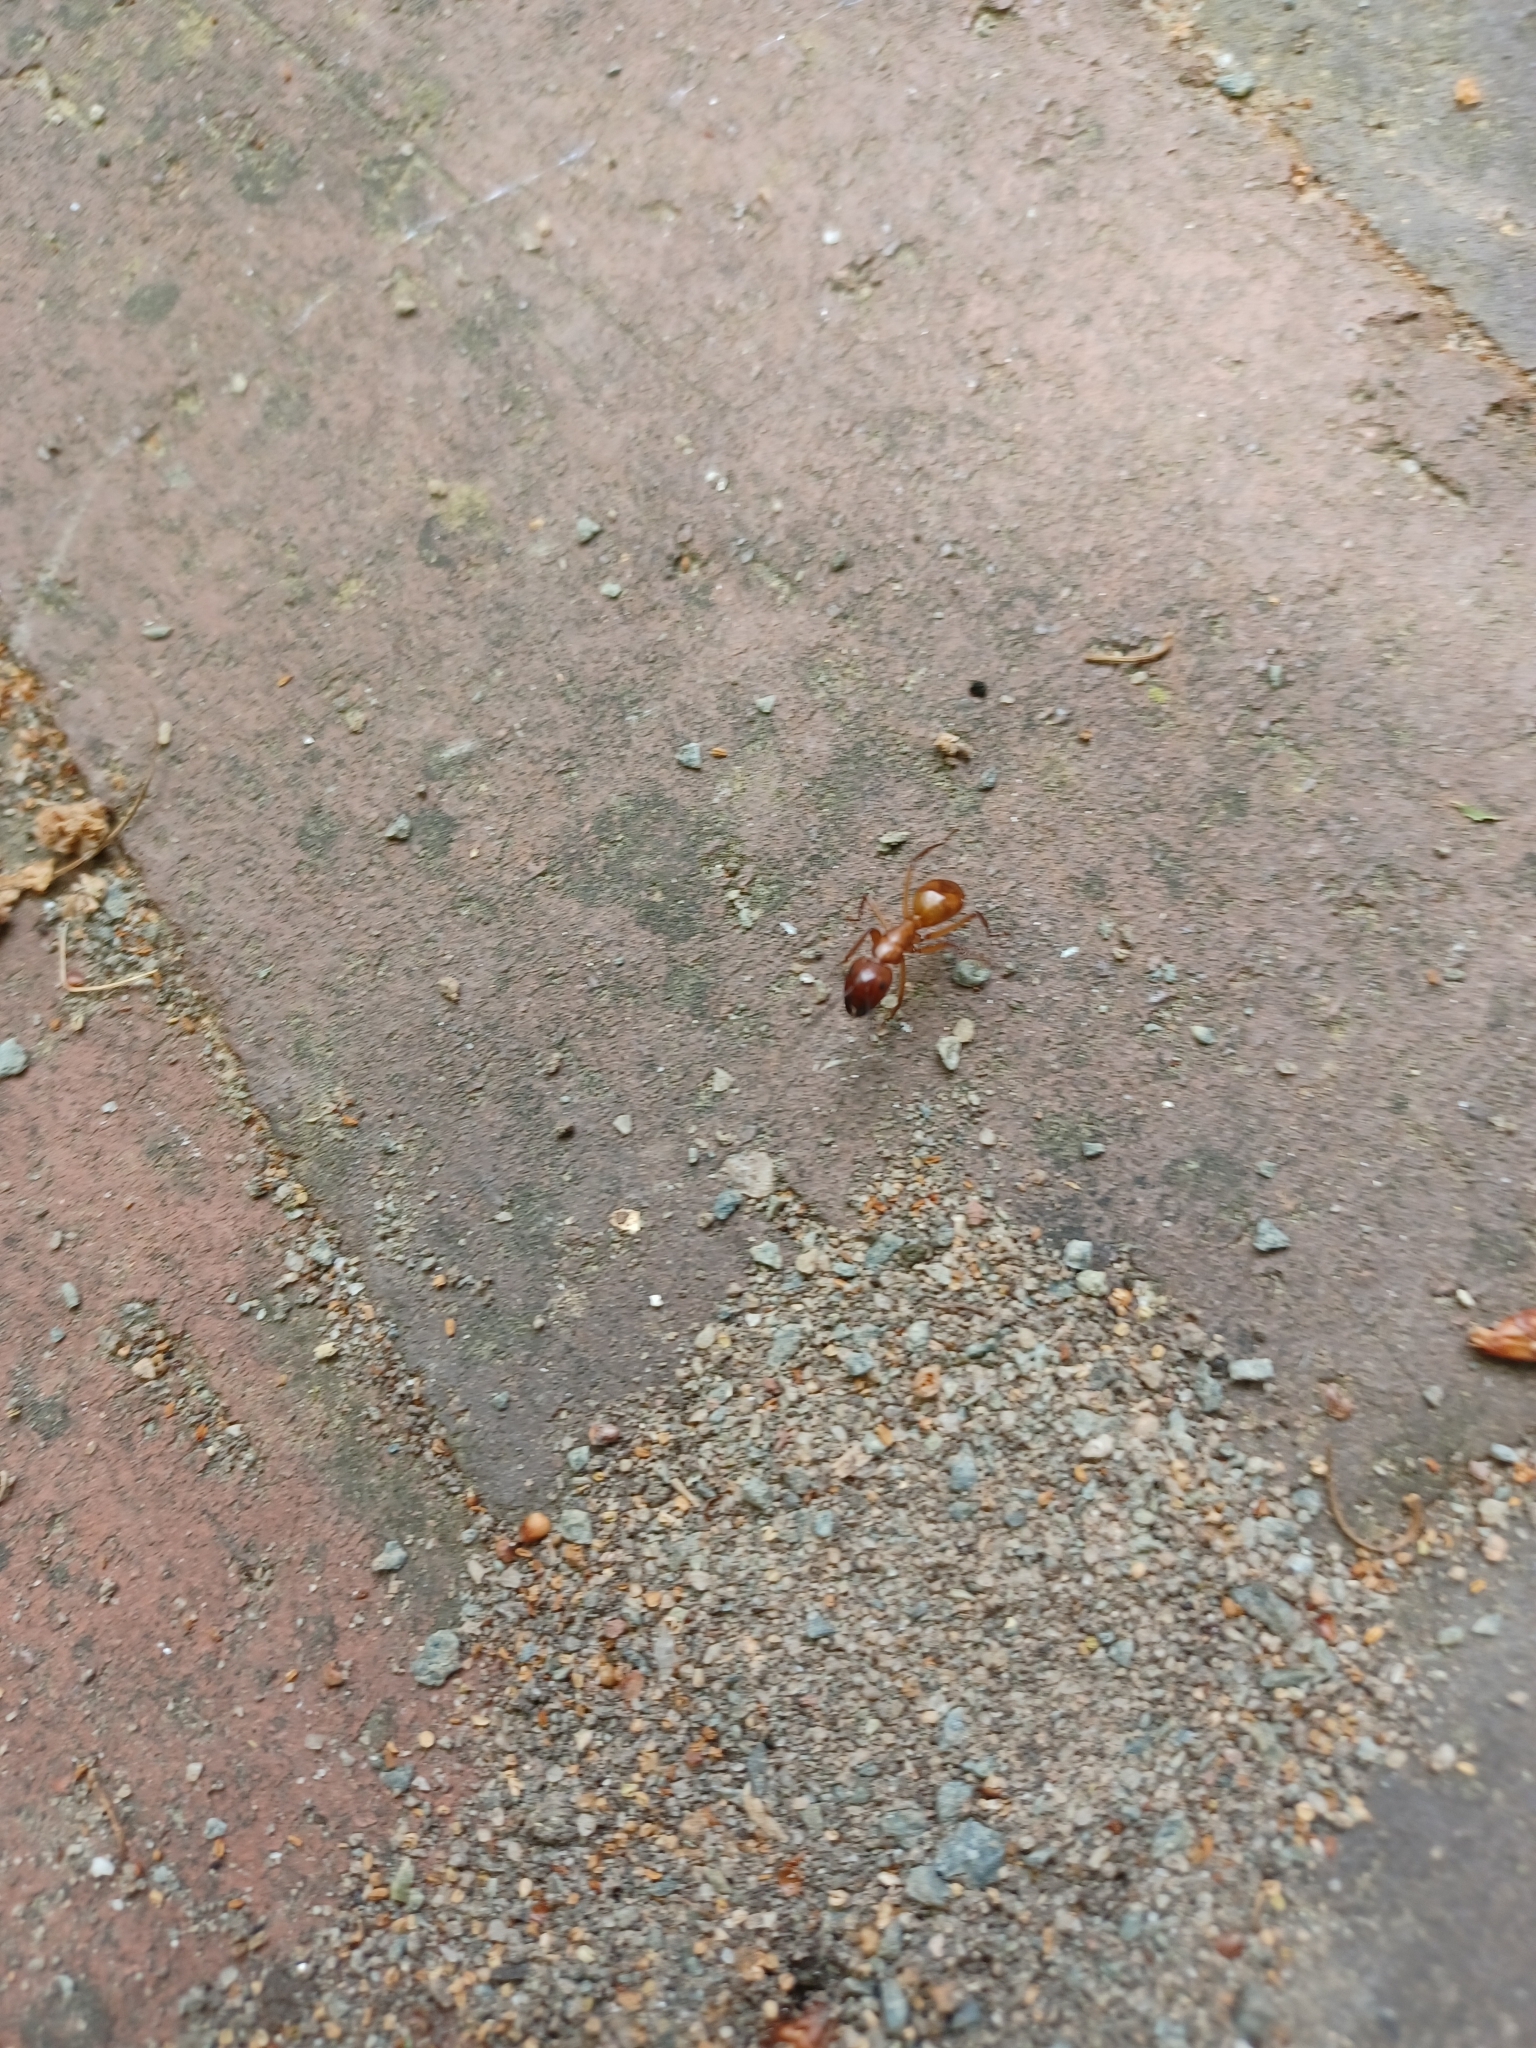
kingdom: Animalia
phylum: Arthropoda
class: Insecta
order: Hymenoptera
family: Formicidae
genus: Camponotus
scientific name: Camponotus castaneus
